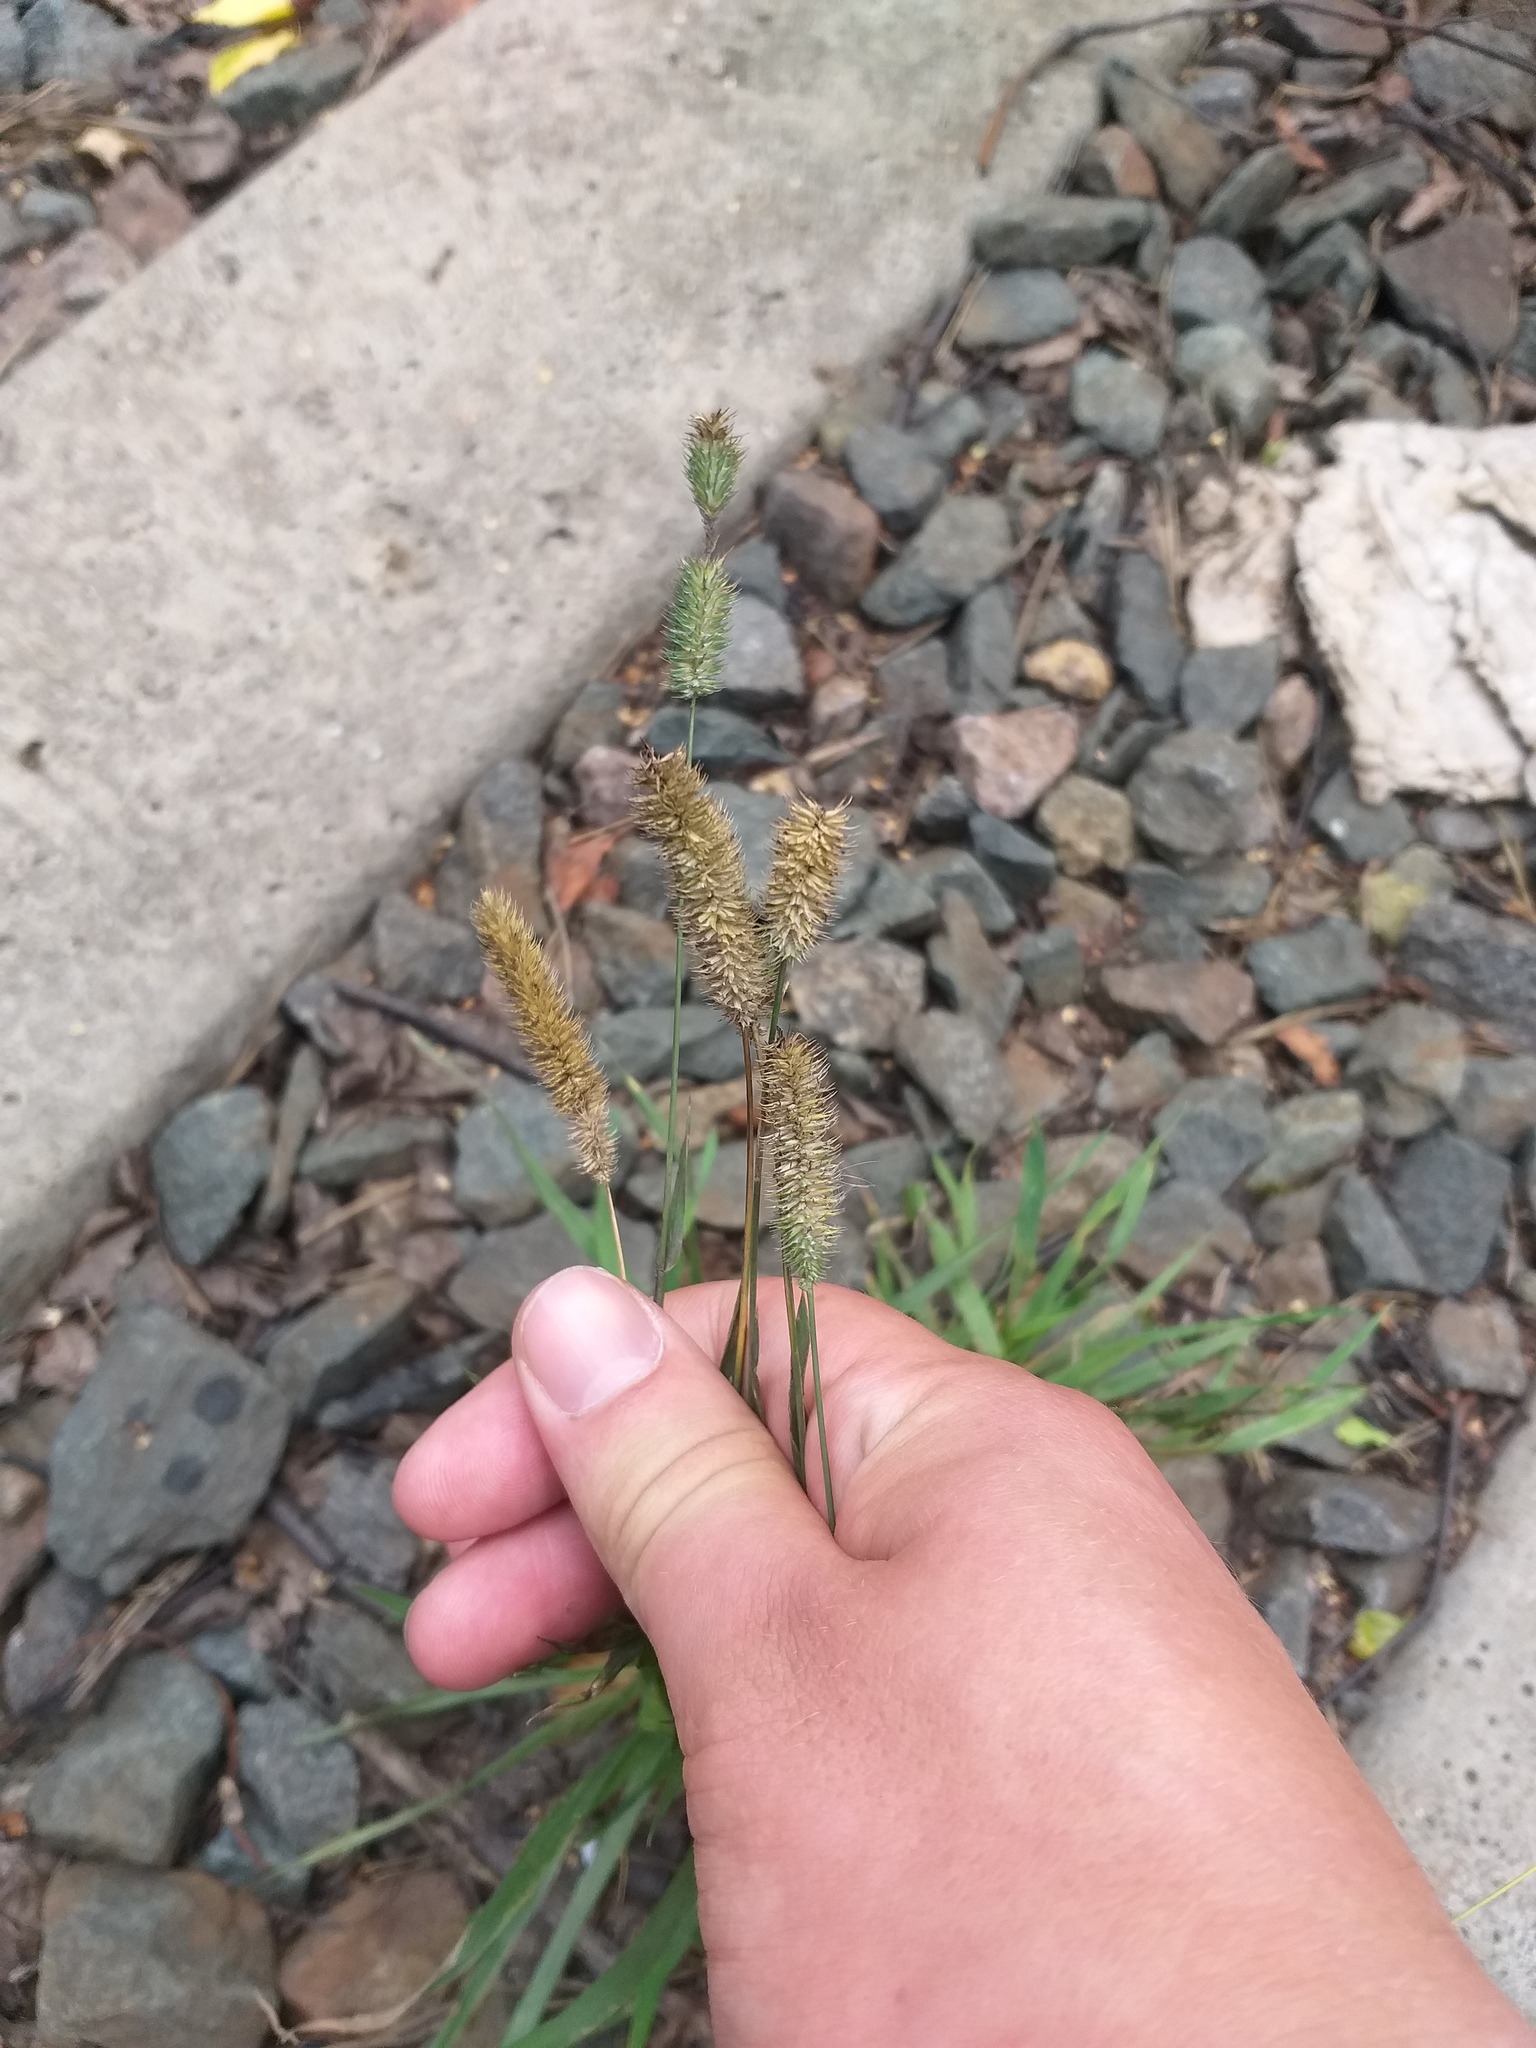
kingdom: Plantae
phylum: Tracheophyta
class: Liliopsida
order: Poales
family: Poaceae
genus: Phleum
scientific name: Phleum pratense
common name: Timothy grass
